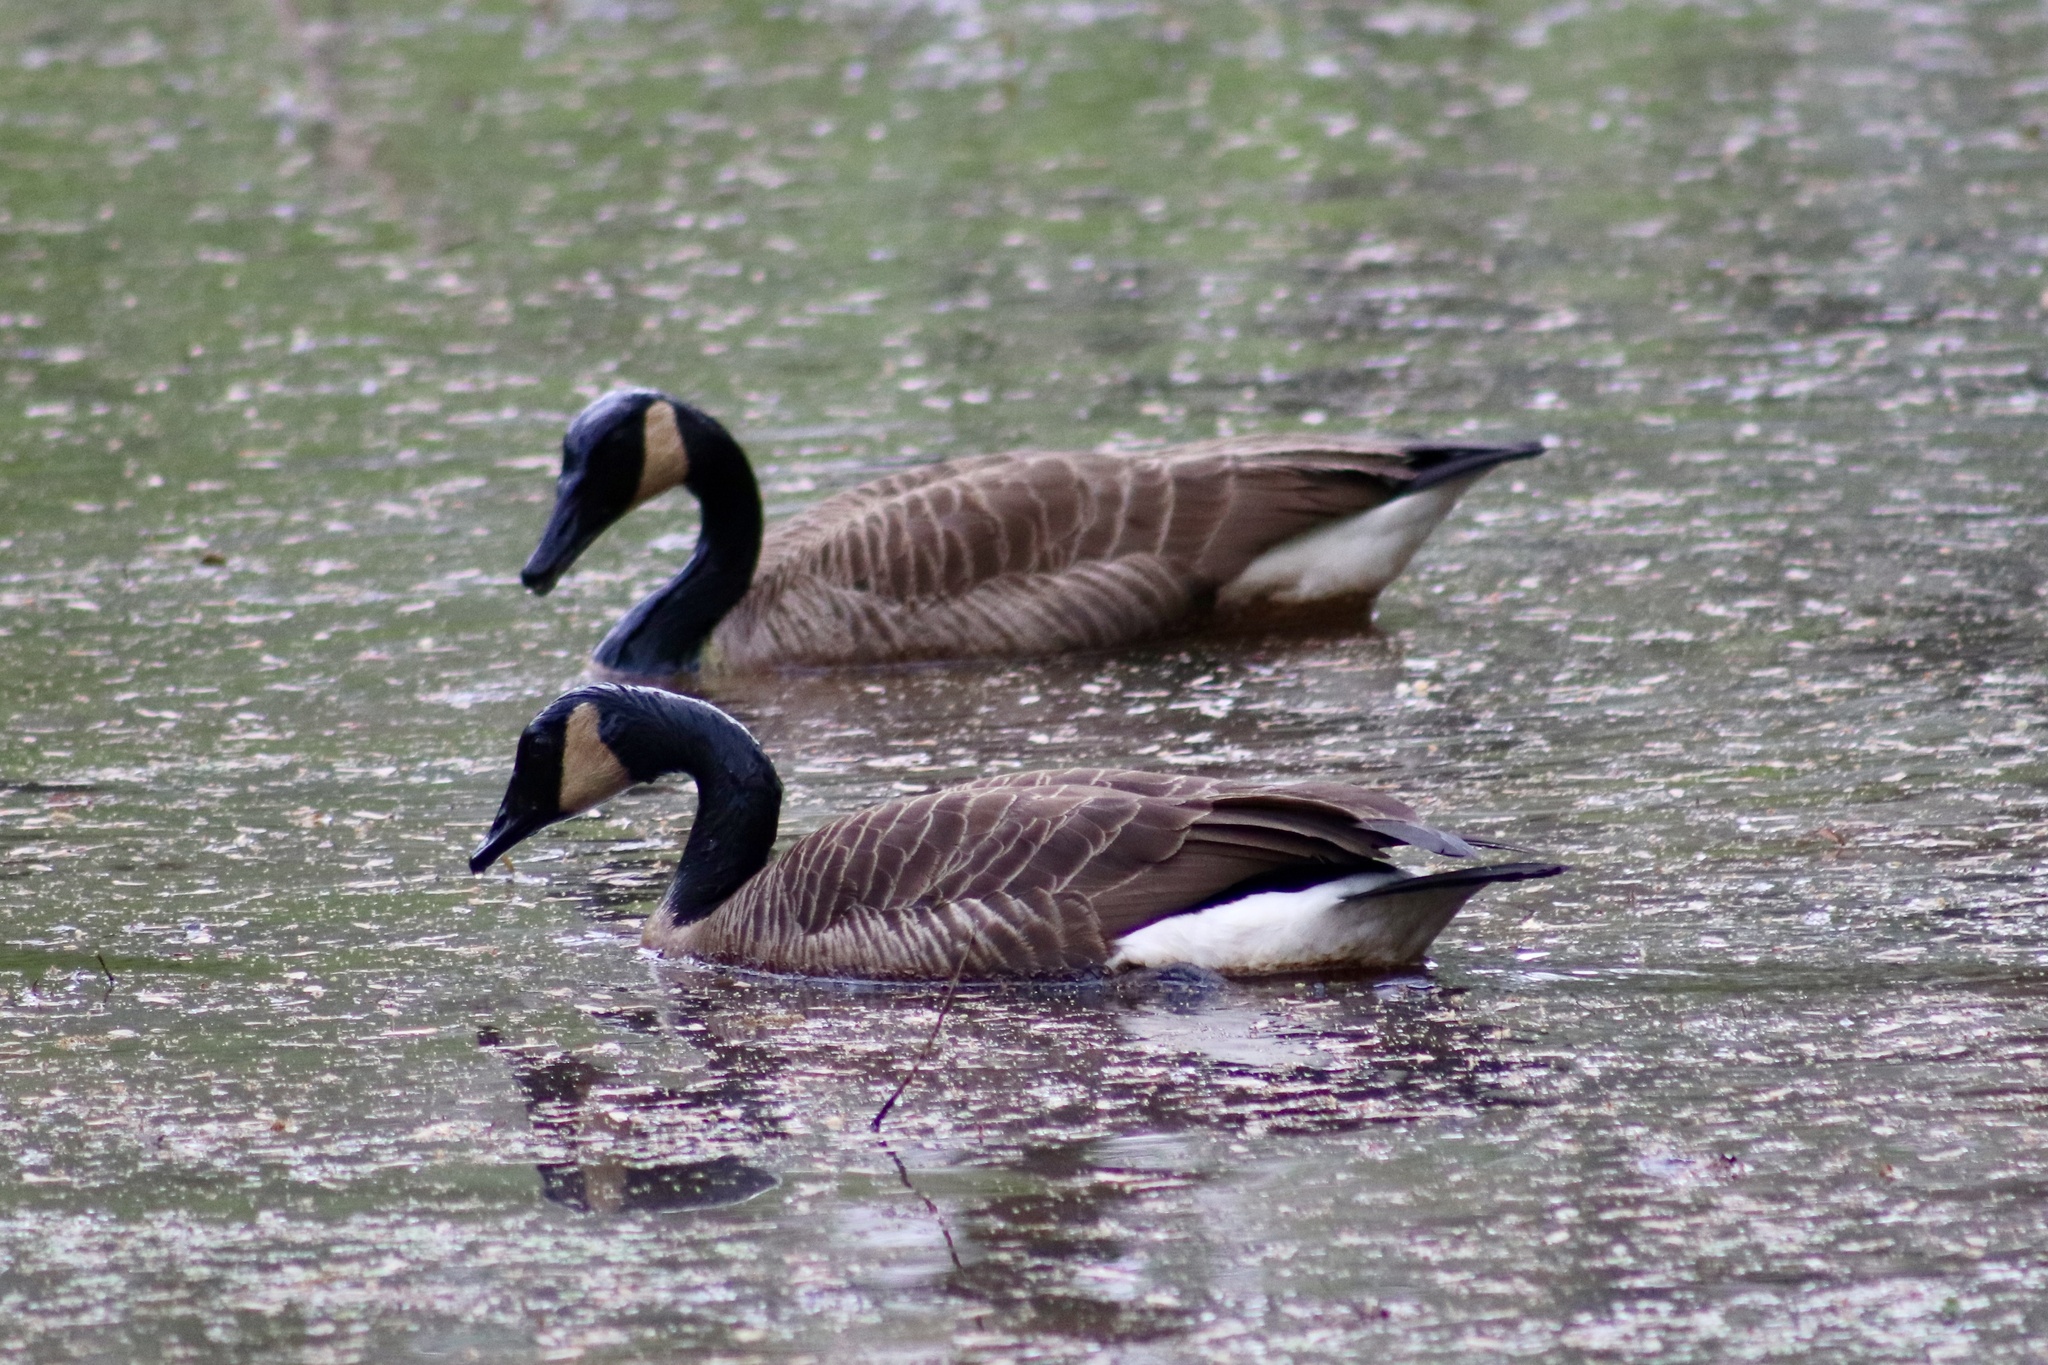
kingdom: Animalia
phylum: Chordata
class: Aves
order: Anseriformes
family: Anatidae
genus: Branta
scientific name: Branta canadensis
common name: Canada goose
